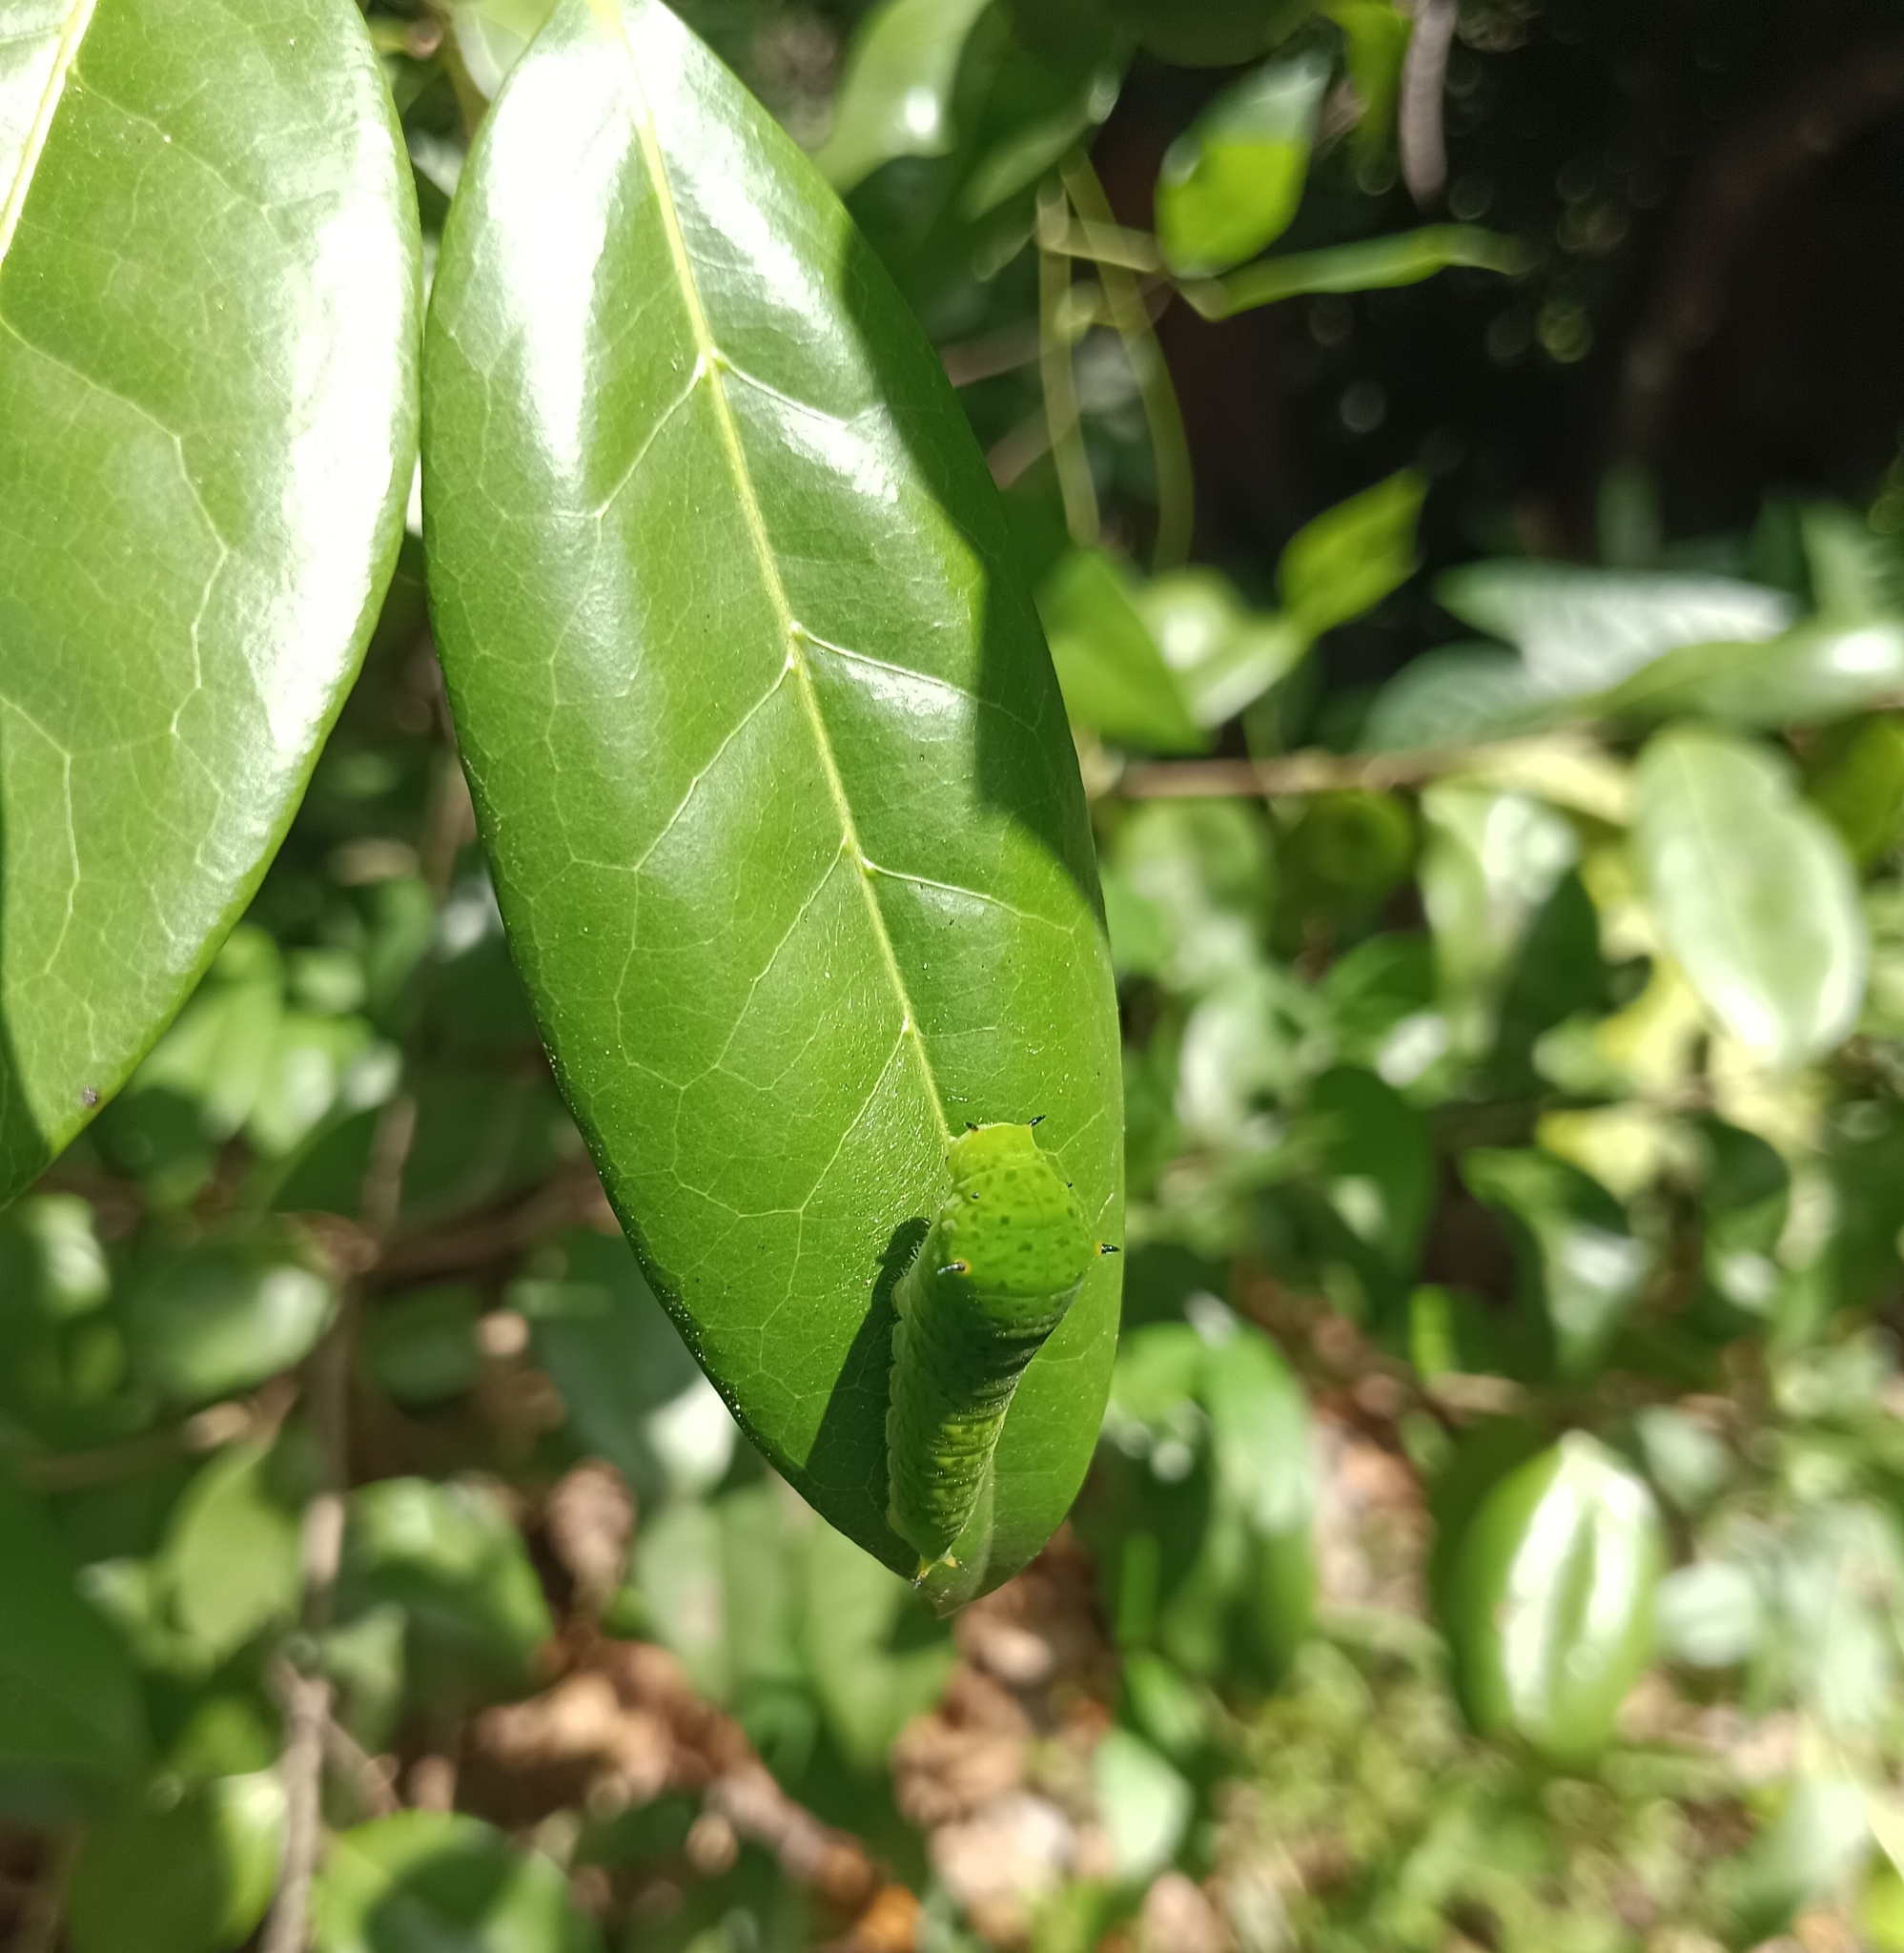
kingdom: Animalia
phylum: Arthropoda
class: Insecta
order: Lepidoptera
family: Papilionidae
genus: Graphium
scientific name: Graphium agamemnon
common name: Tailed jay
